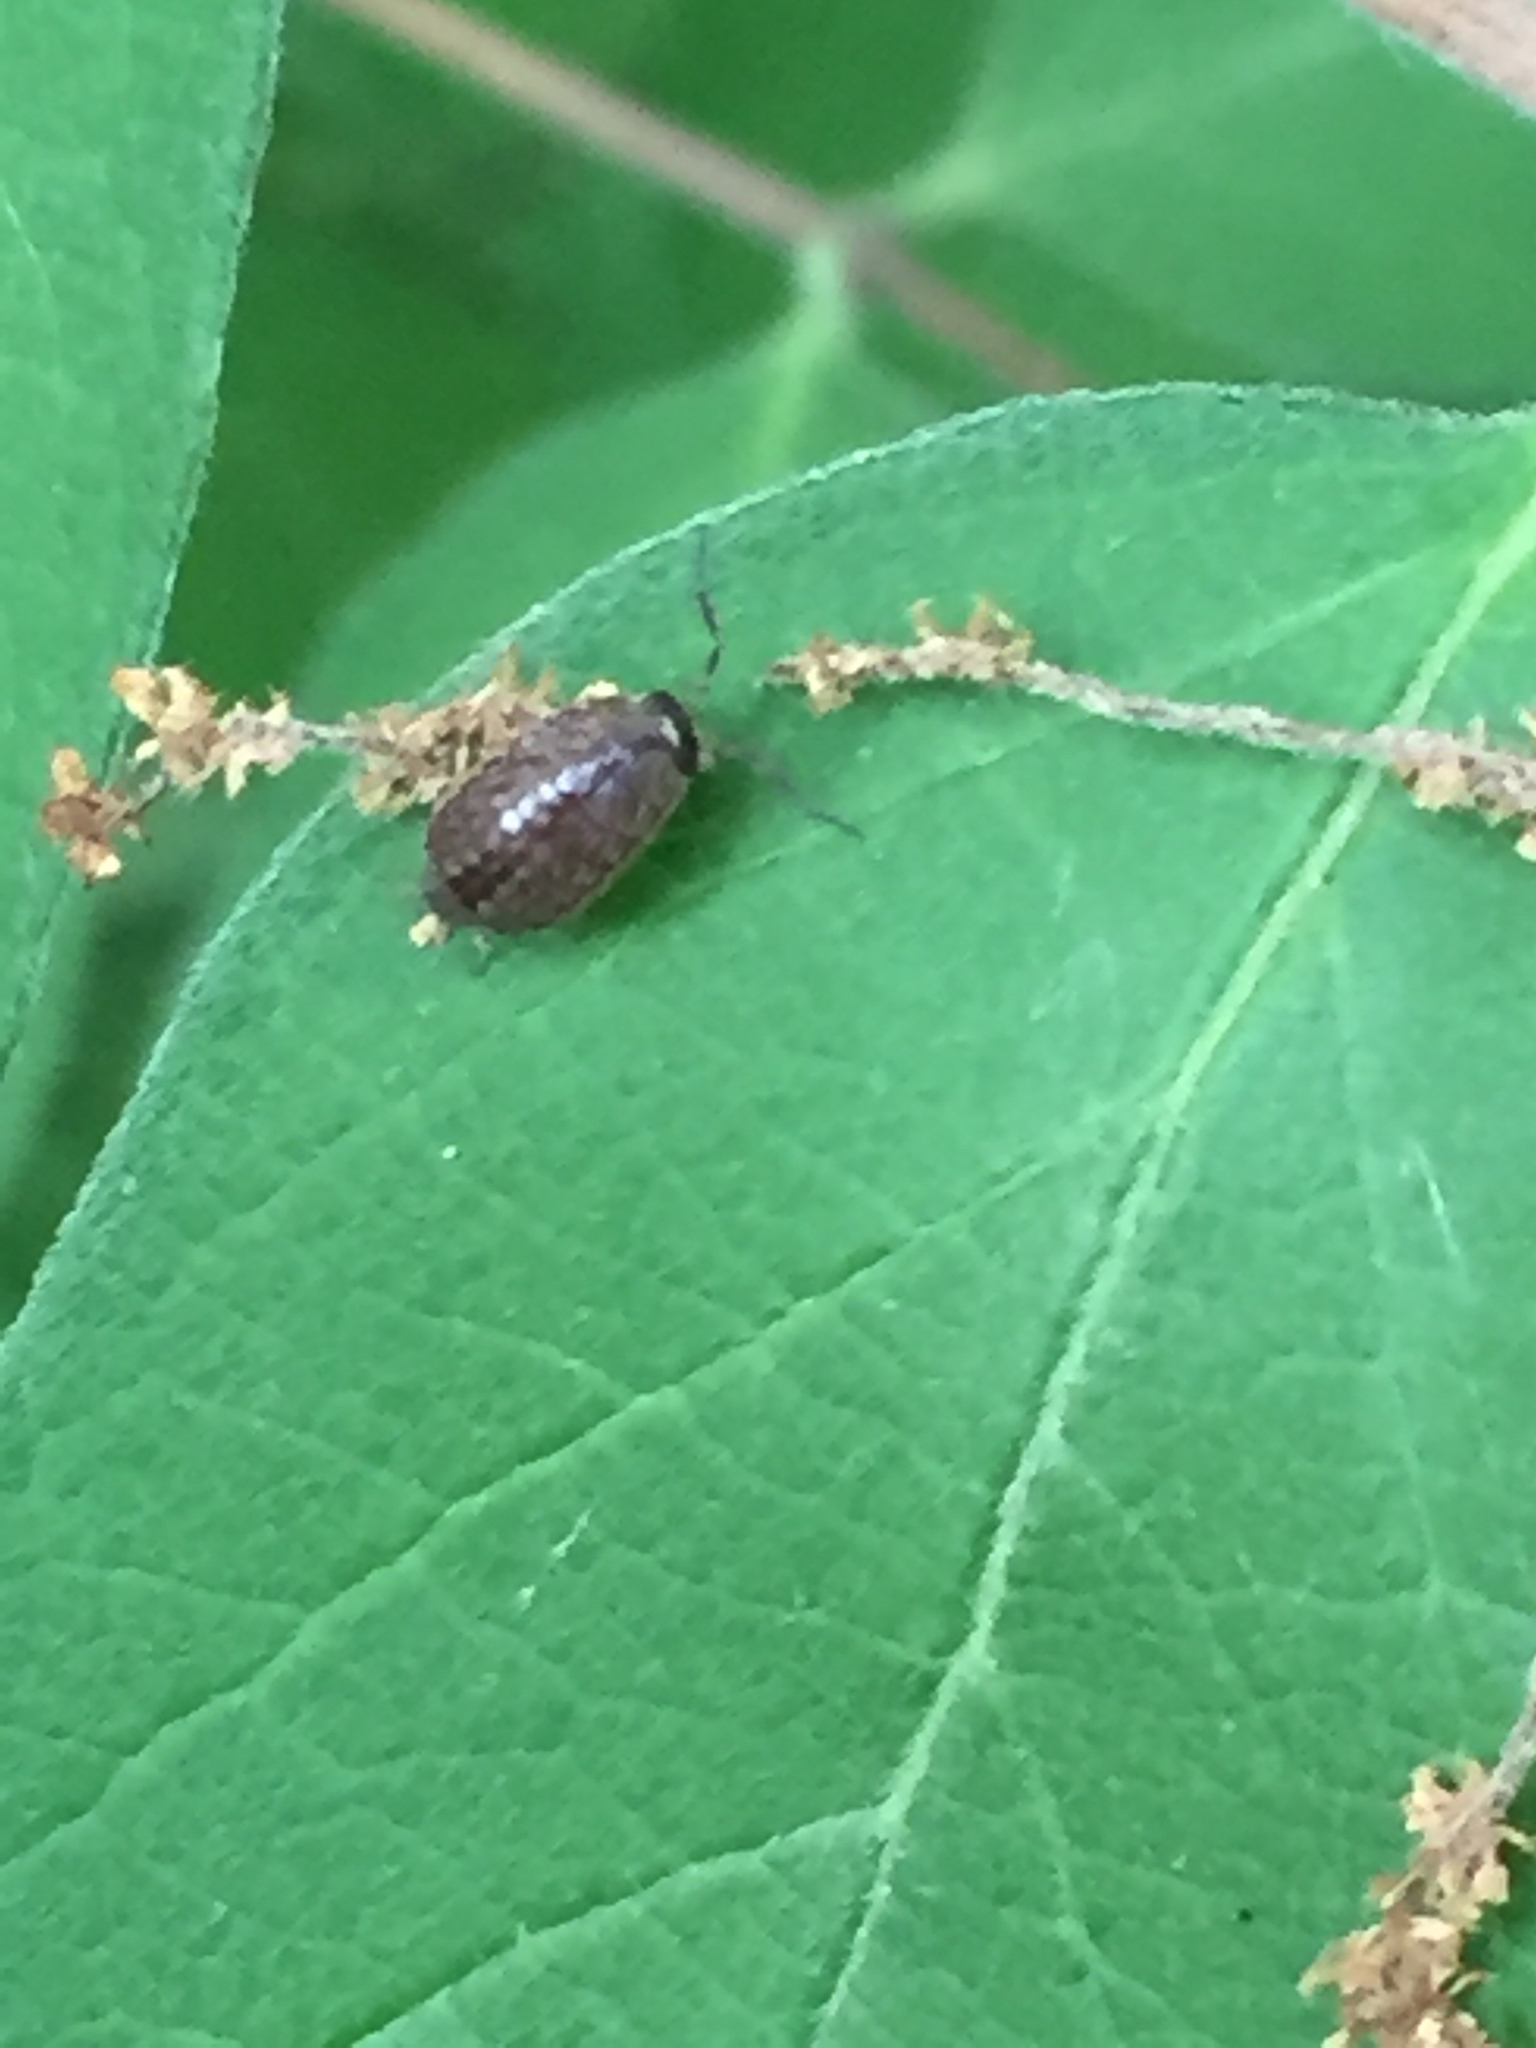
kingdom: Animalia
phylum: Arthropoda
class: Malacostraca
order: Isopoda
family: Philosciidae
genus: Philoscia
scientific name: Philoscia muscorum
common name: Common striped woodlouse
